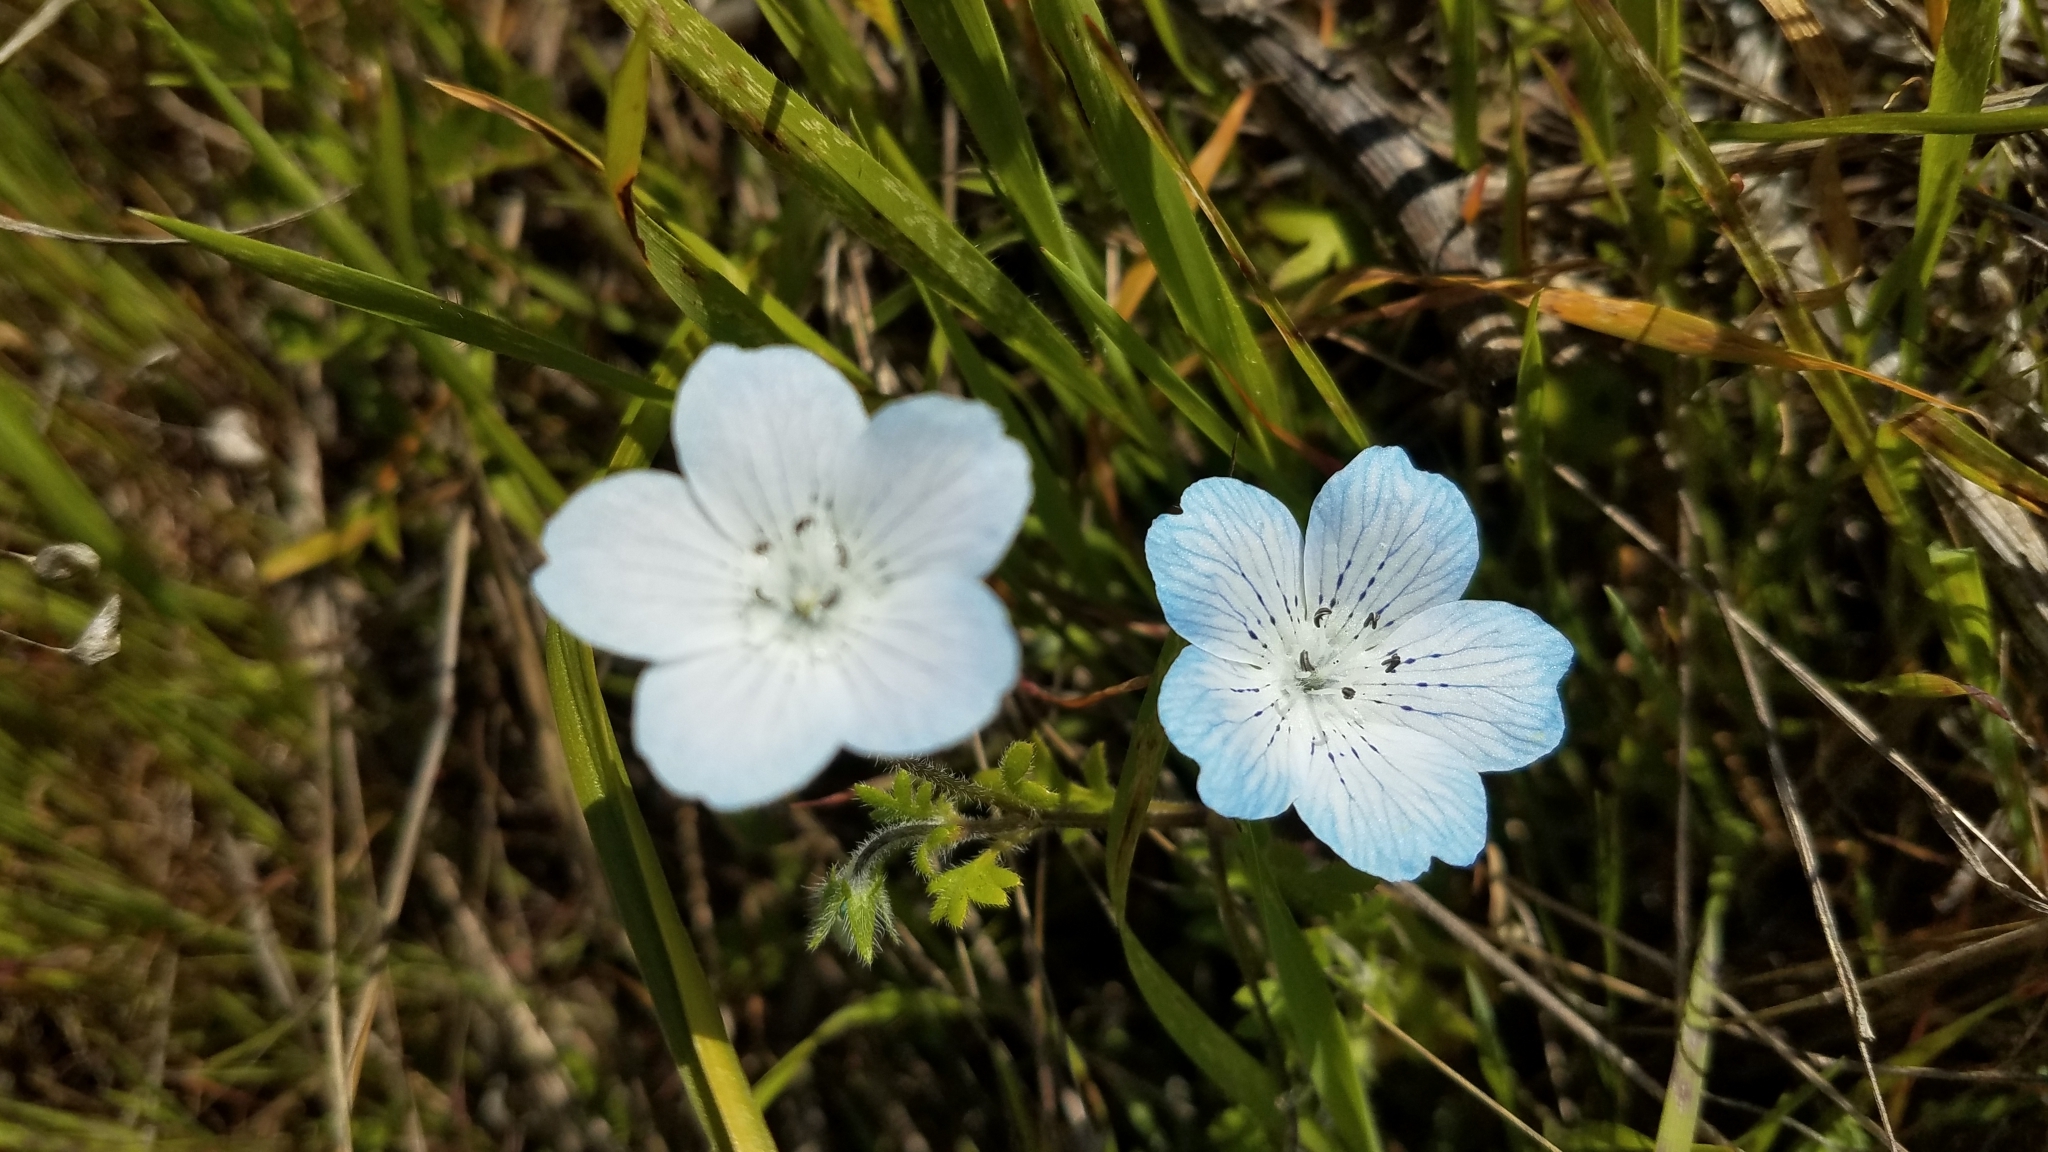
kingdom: Plantae
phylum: Tracheophyta
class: Magnoliopsida
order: Boraginales
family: Hydrophyllaceae
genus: Nemophila
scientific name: Nemophila menziesii
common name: Baby's-blue-eyes
